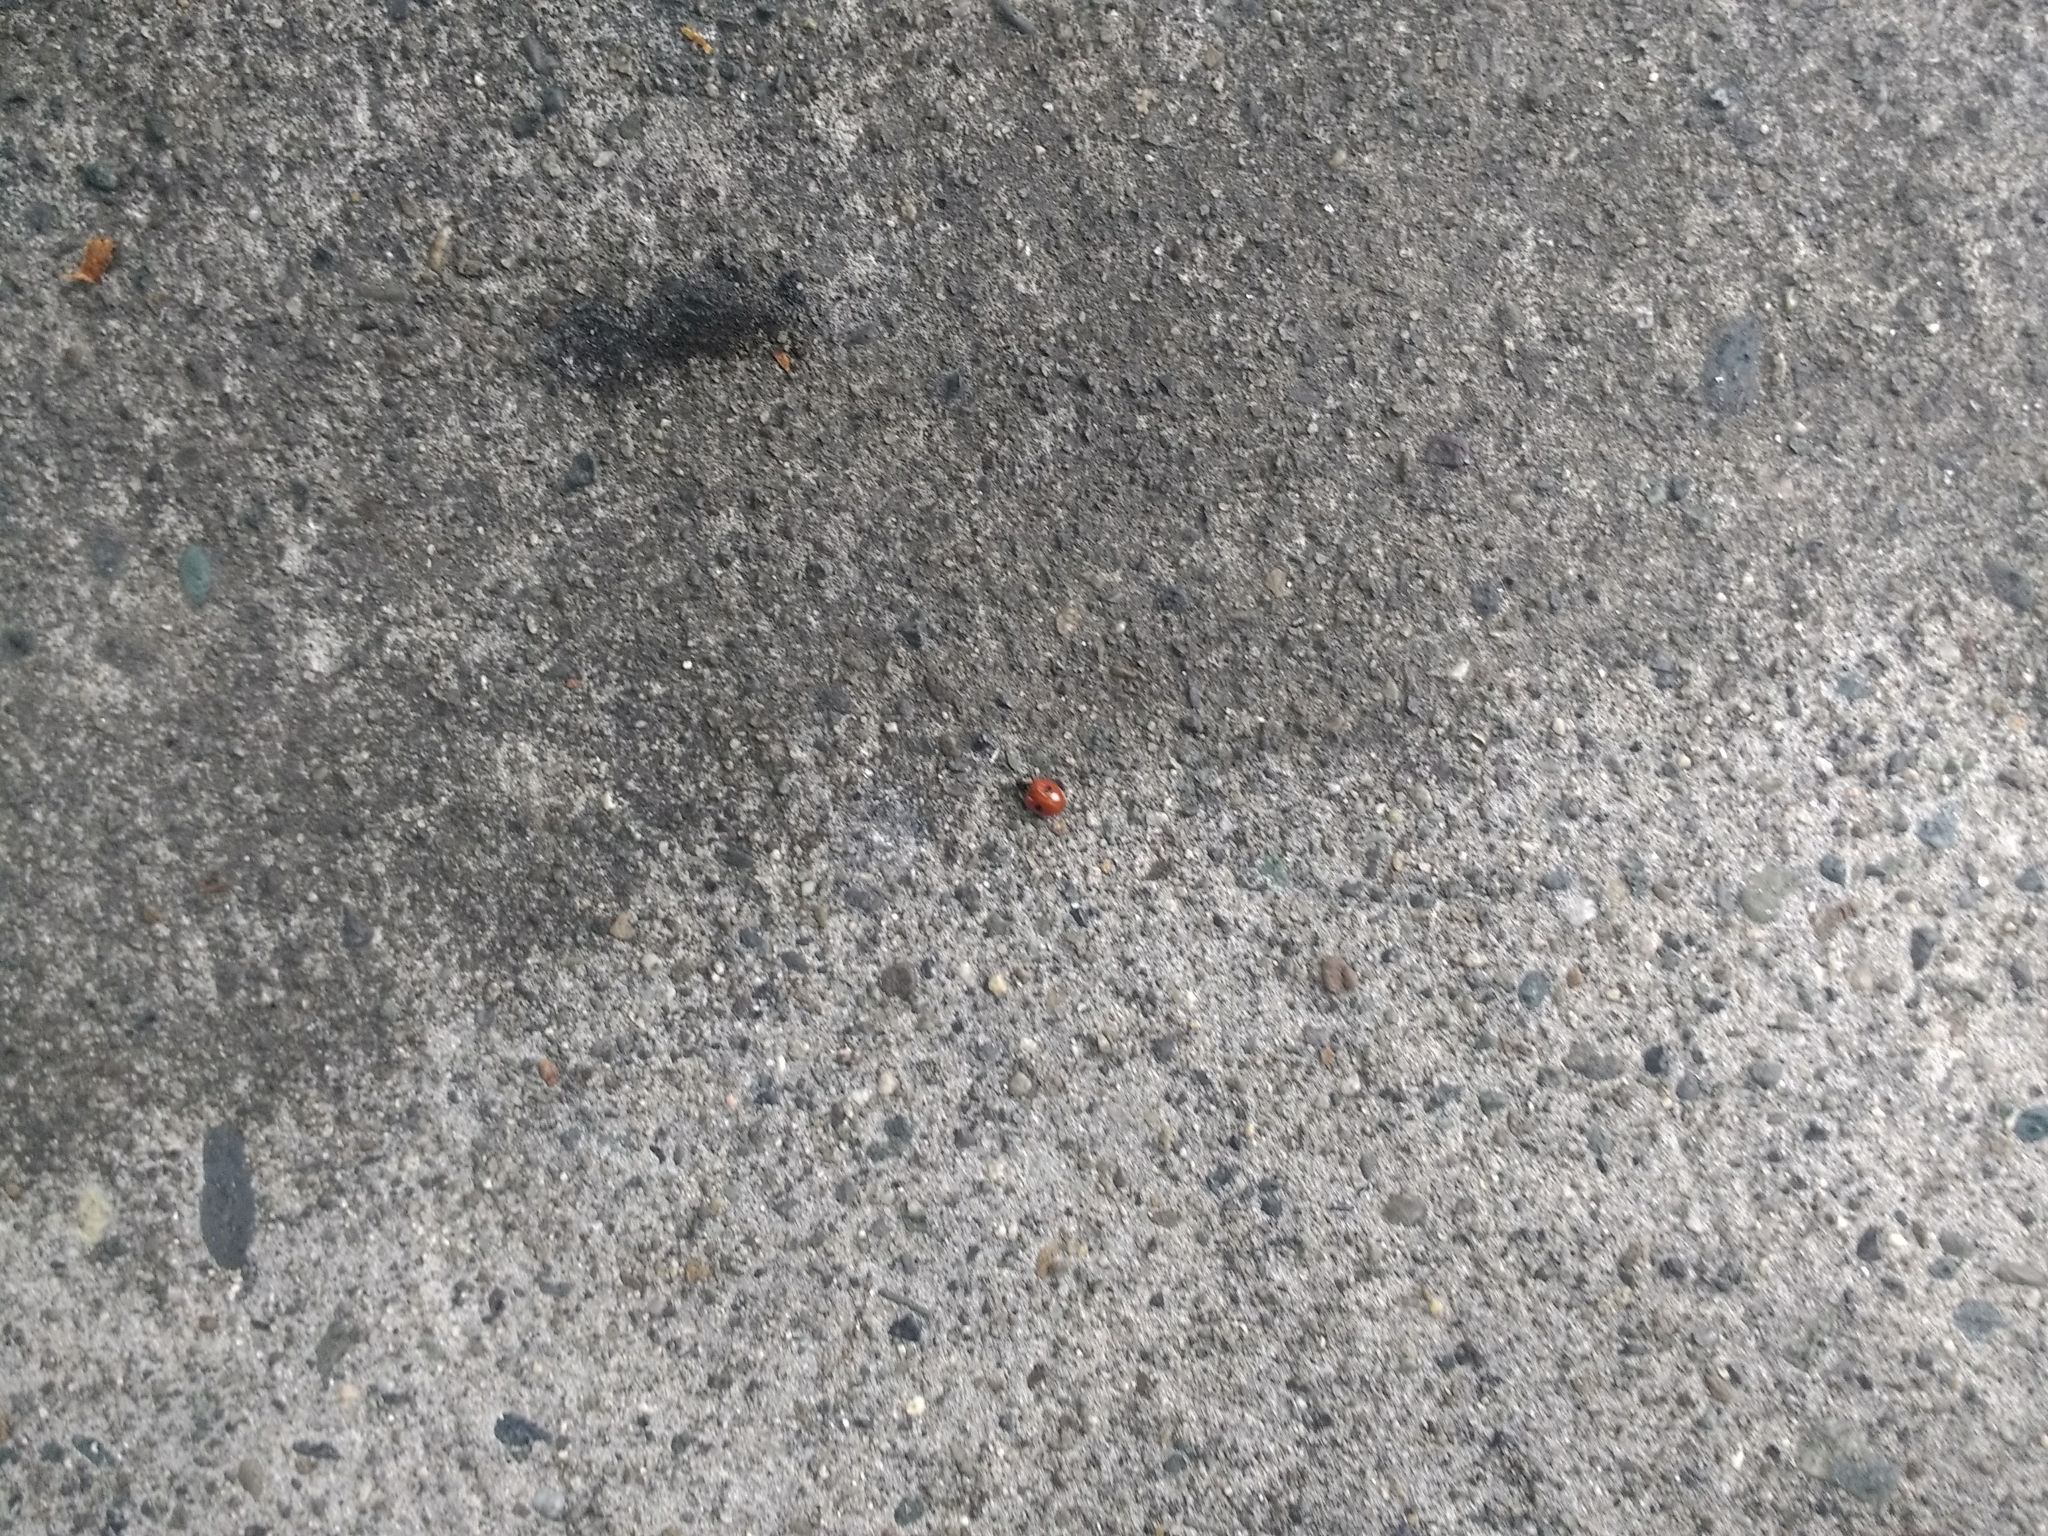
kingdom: Animalia
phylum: Arthropoda
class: Insecta
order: Coleoptera
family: Coccinellidae
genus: Adalia
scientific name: Adalia bipunctata
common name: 2-spot ladybird
